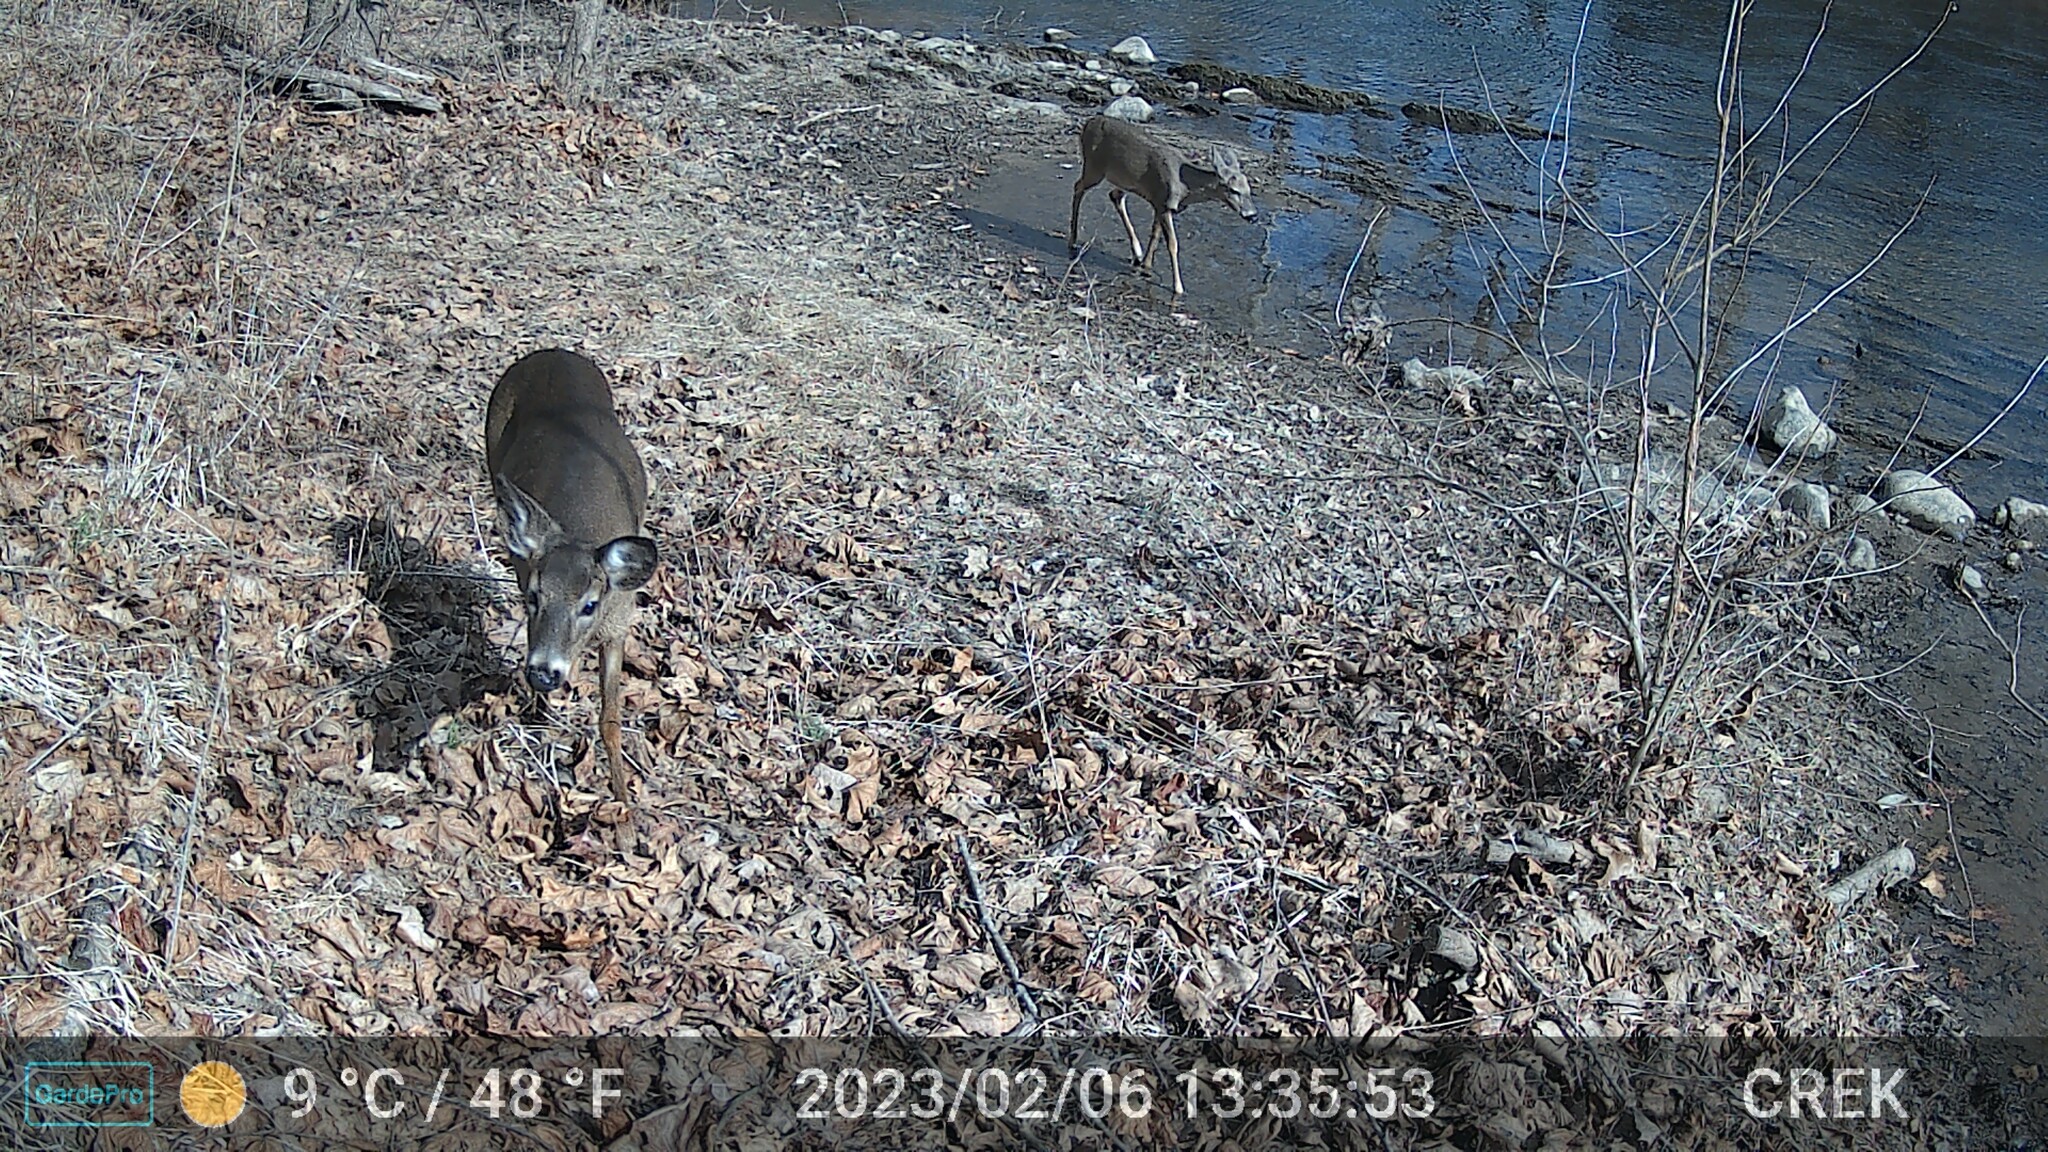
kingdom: Animalia
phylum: Chordata
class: Mammalia
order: Artiodactyla
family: Cervidae
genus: Odocoileus
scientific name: Odocoileus virginianus
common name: White-tailed deer
